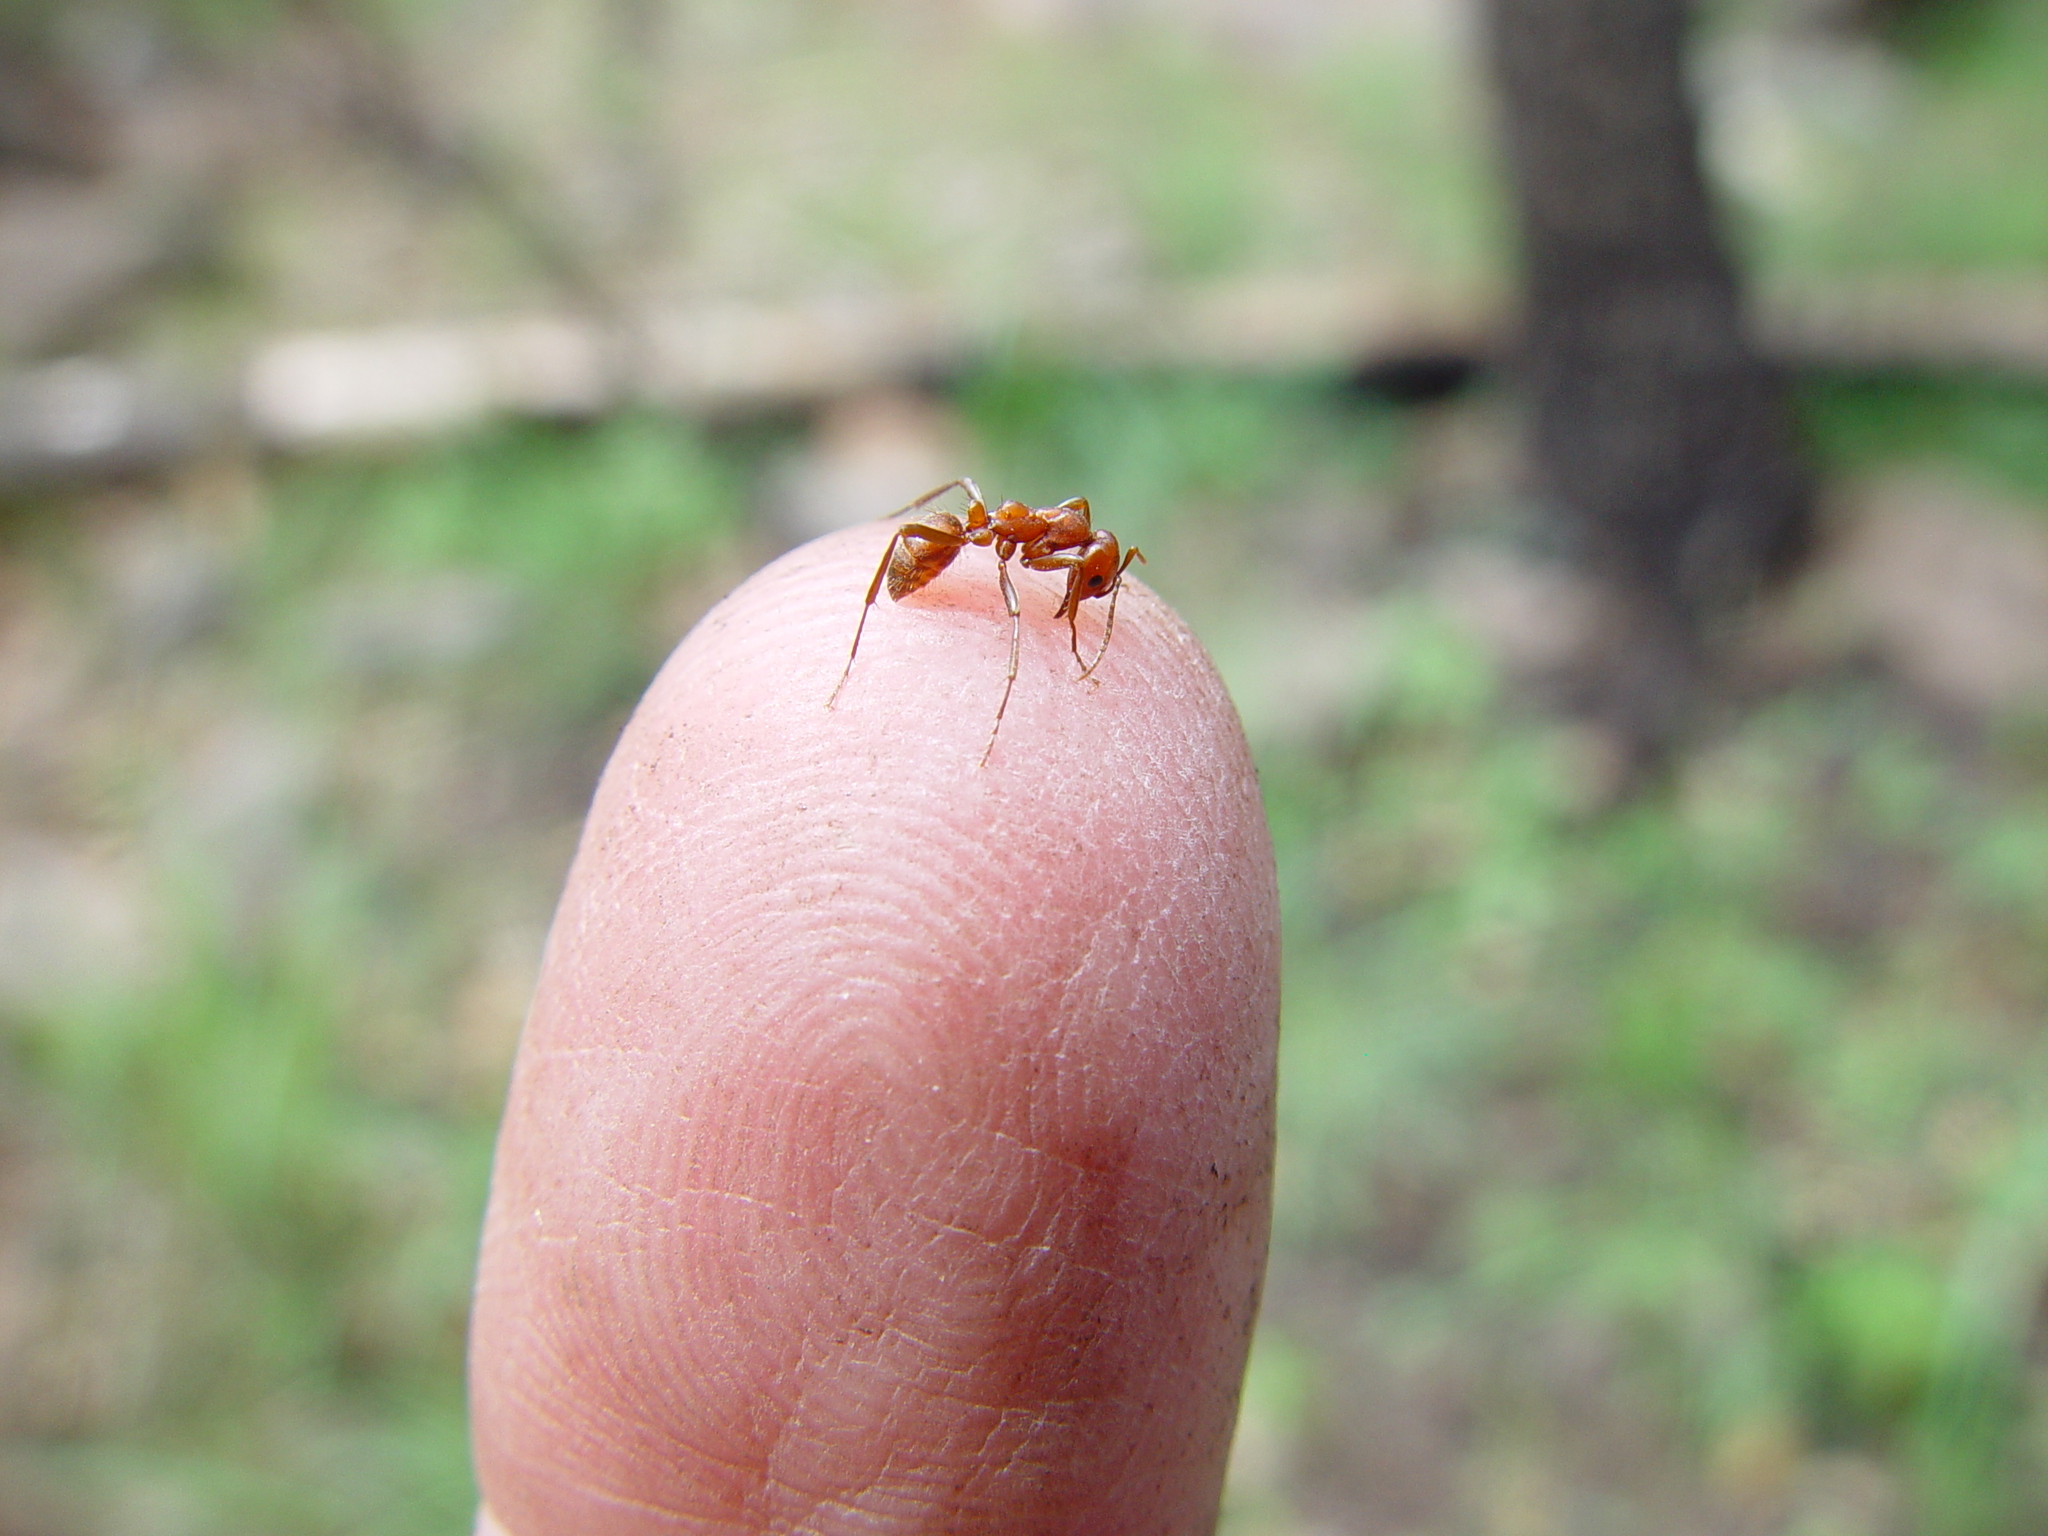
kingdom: Animalia
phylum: Arthropoda
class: Insecta
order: Hymenoptera
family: Formicidae
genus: Polyergus
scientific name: Polyergus topoffi
